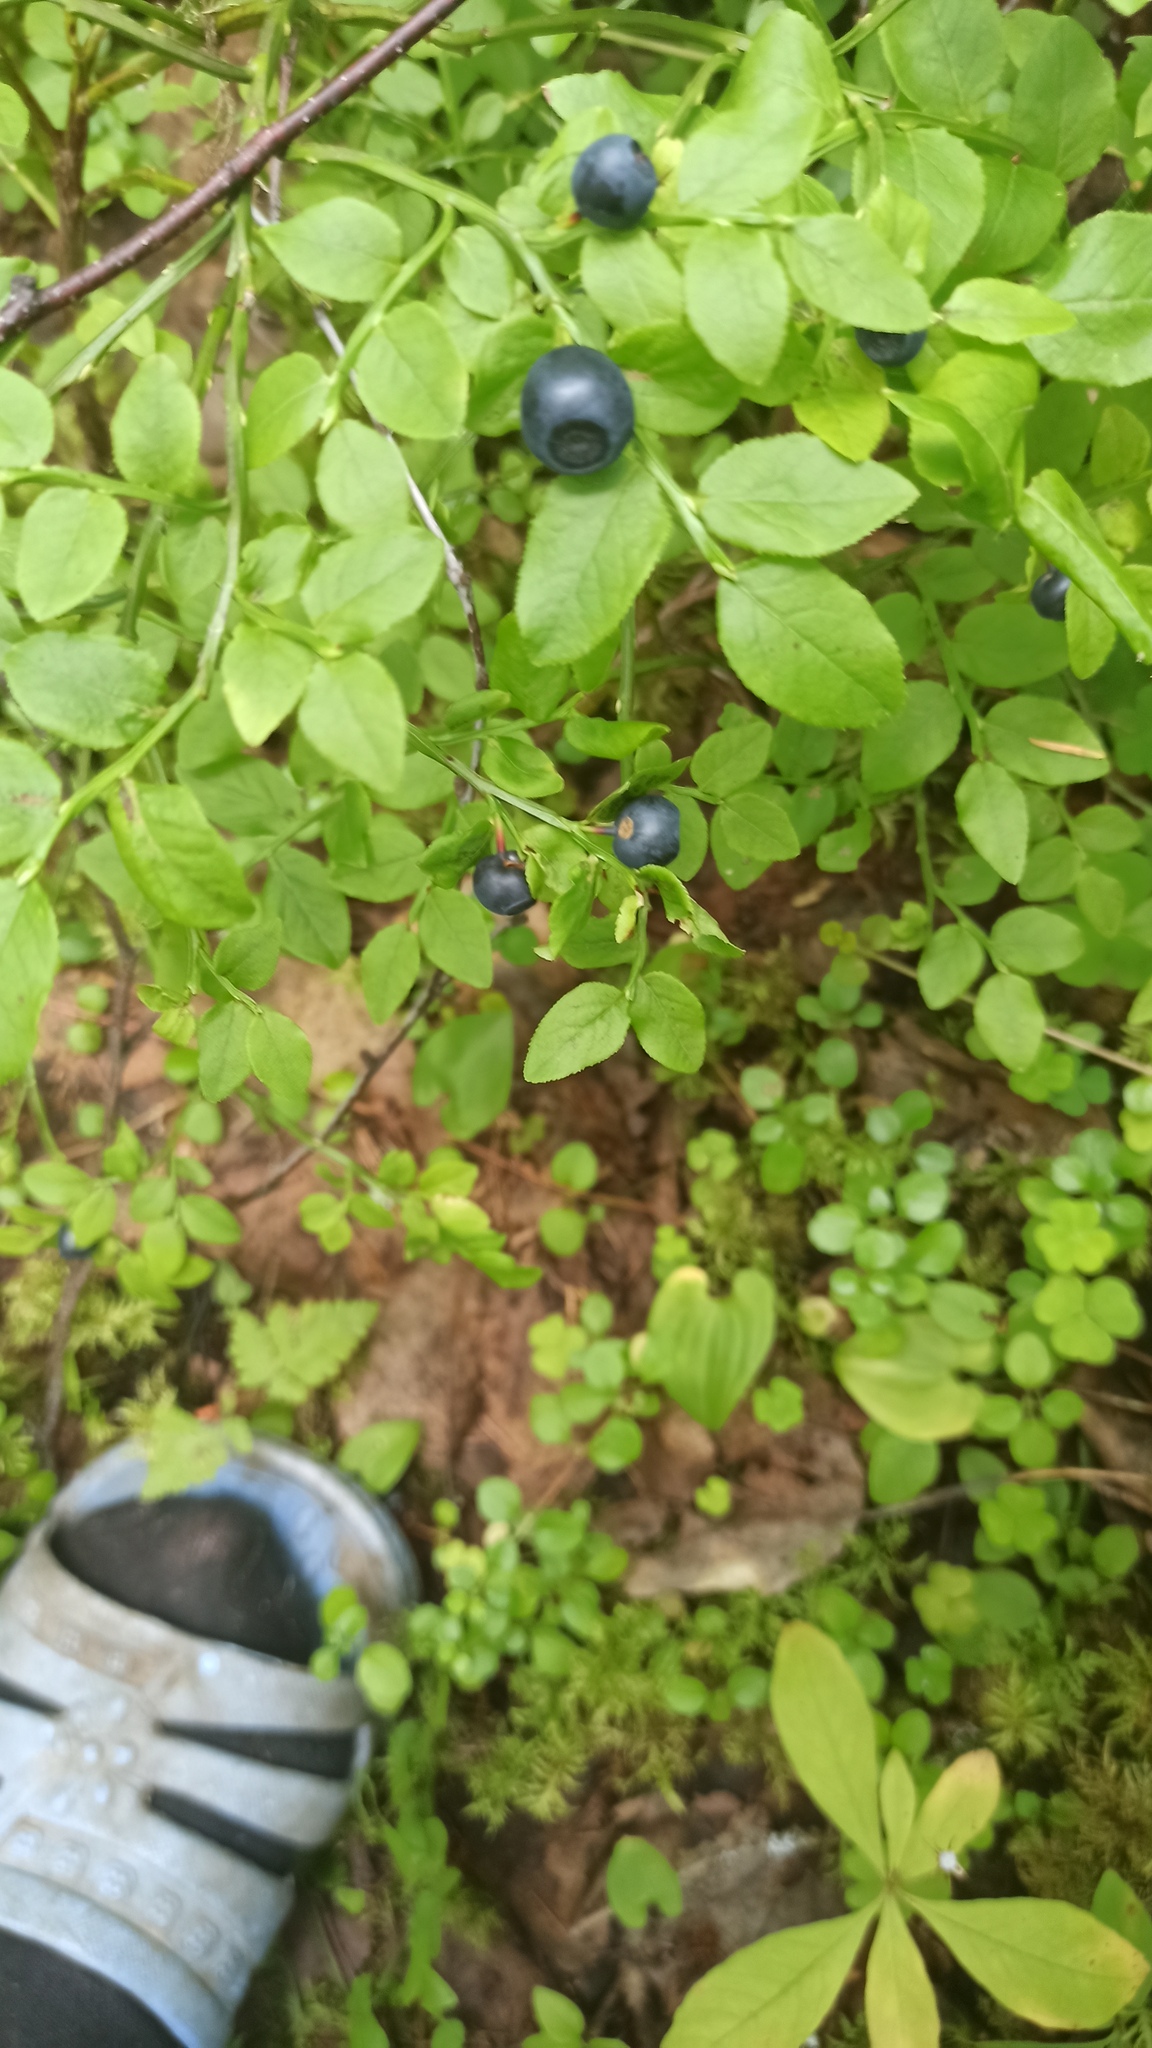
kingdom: Plantae
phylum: Tracheophyta
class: Magnoliopsida
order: Ericales
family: Ericaceae
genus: Vaccinium
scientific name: Vaccinium myrtillus
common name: Bilberry
